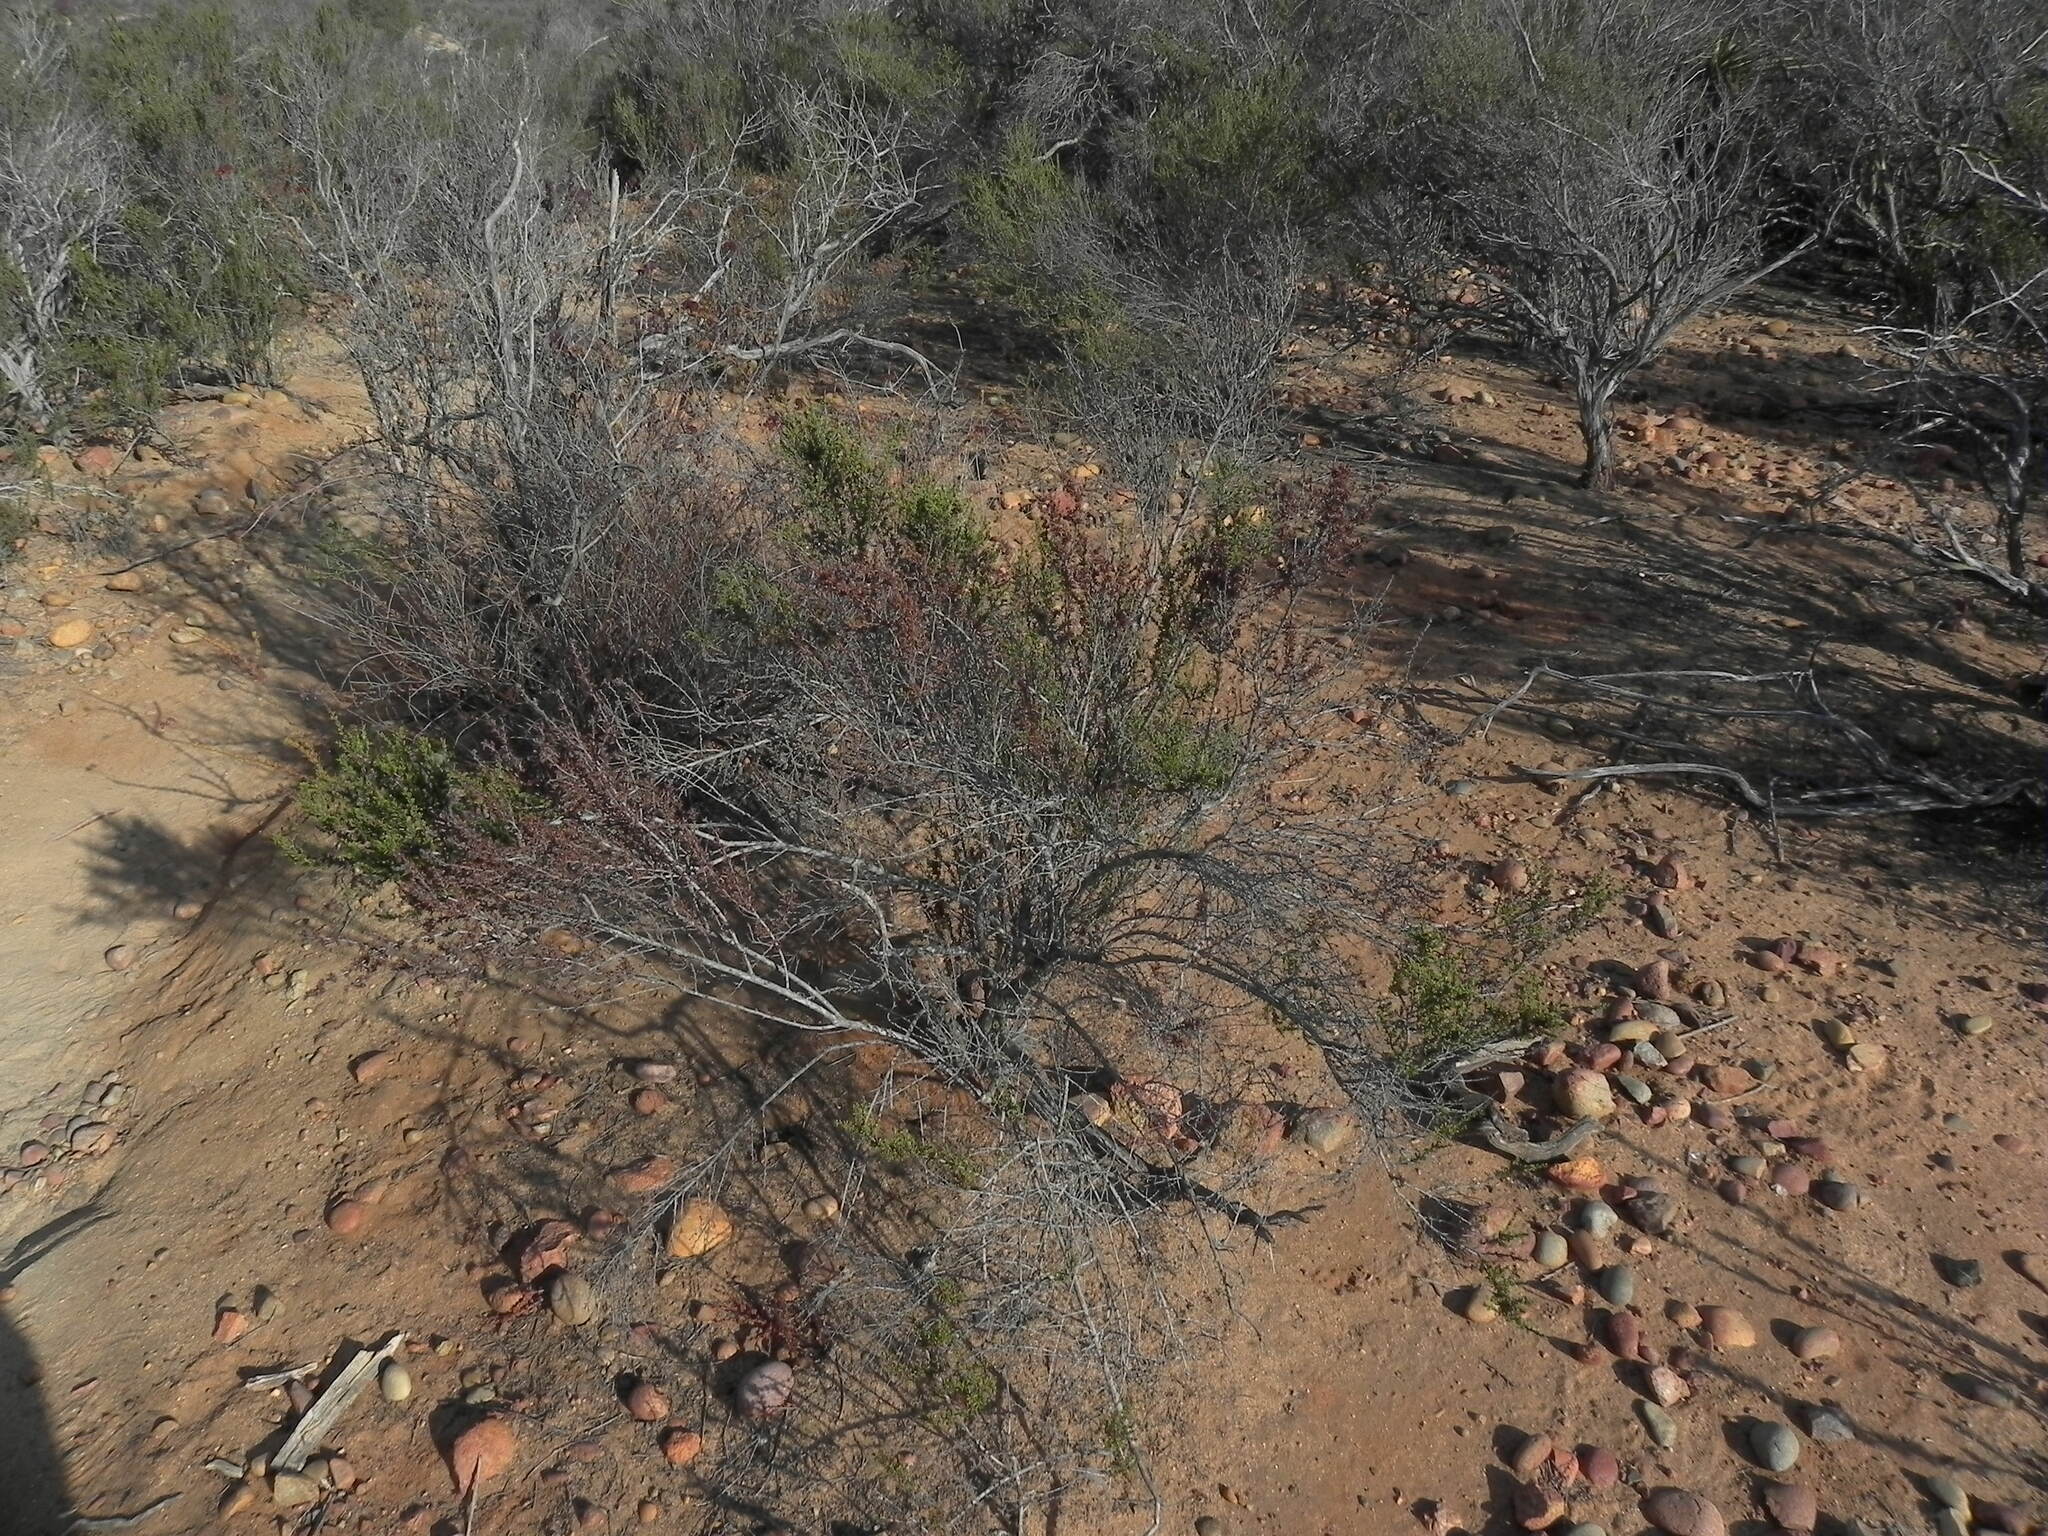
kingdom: Plantae
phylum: Tracheophyta
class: Magnoliopsida
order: Rosales
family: Rosaceae
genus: Adenostoma
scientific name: Adenostoma fasciculatum
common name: Chamise
